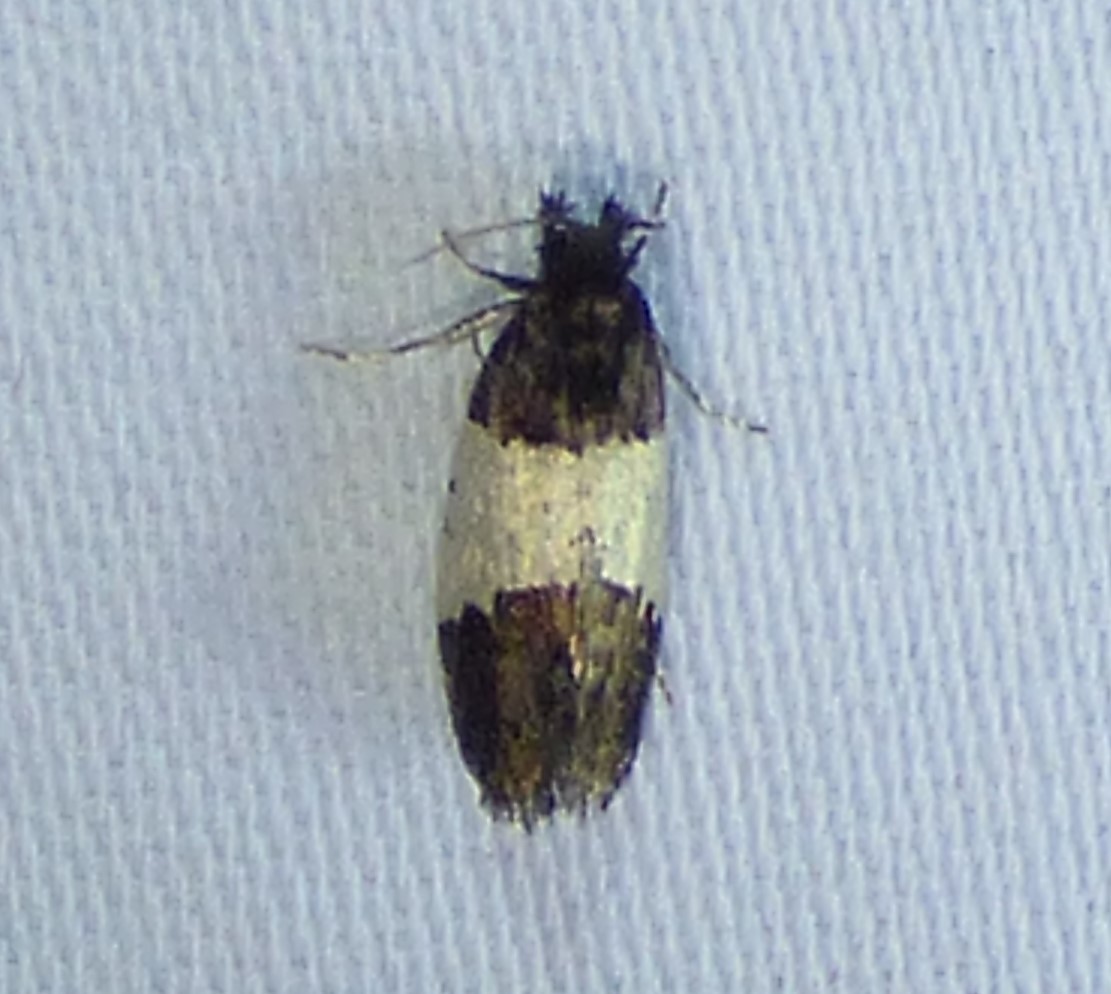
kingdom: Animalia
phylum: Arthropoda
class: Insecta
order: Lepidoptera
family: Psychidae
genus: Kearfottia
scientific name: Kearfottia albifasciella
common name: White-patched kearfottia
